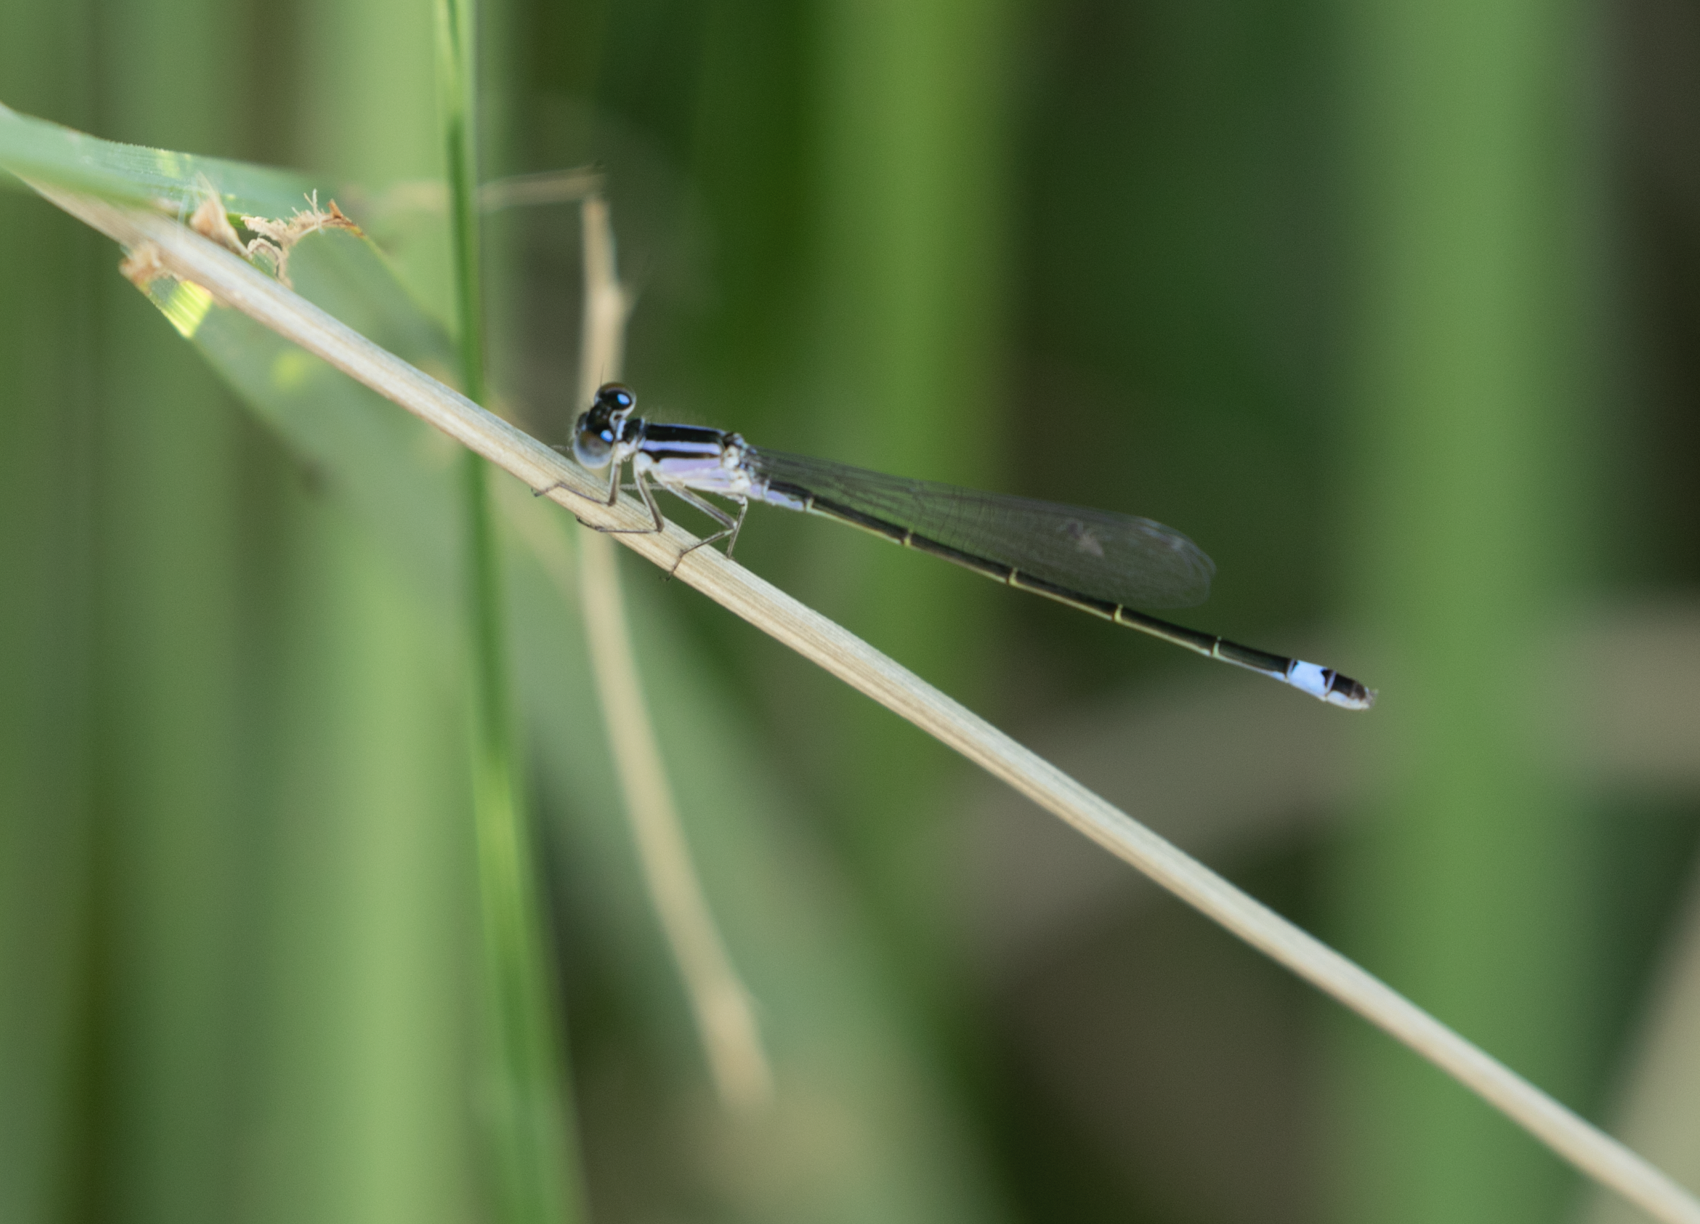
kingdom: Animalia
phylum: Arthropoda
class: Insecta
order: Odonata
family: Coenagrionidae
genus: Ischnura
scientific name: Ischnura elegans
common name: Blue-tailed damselfly
